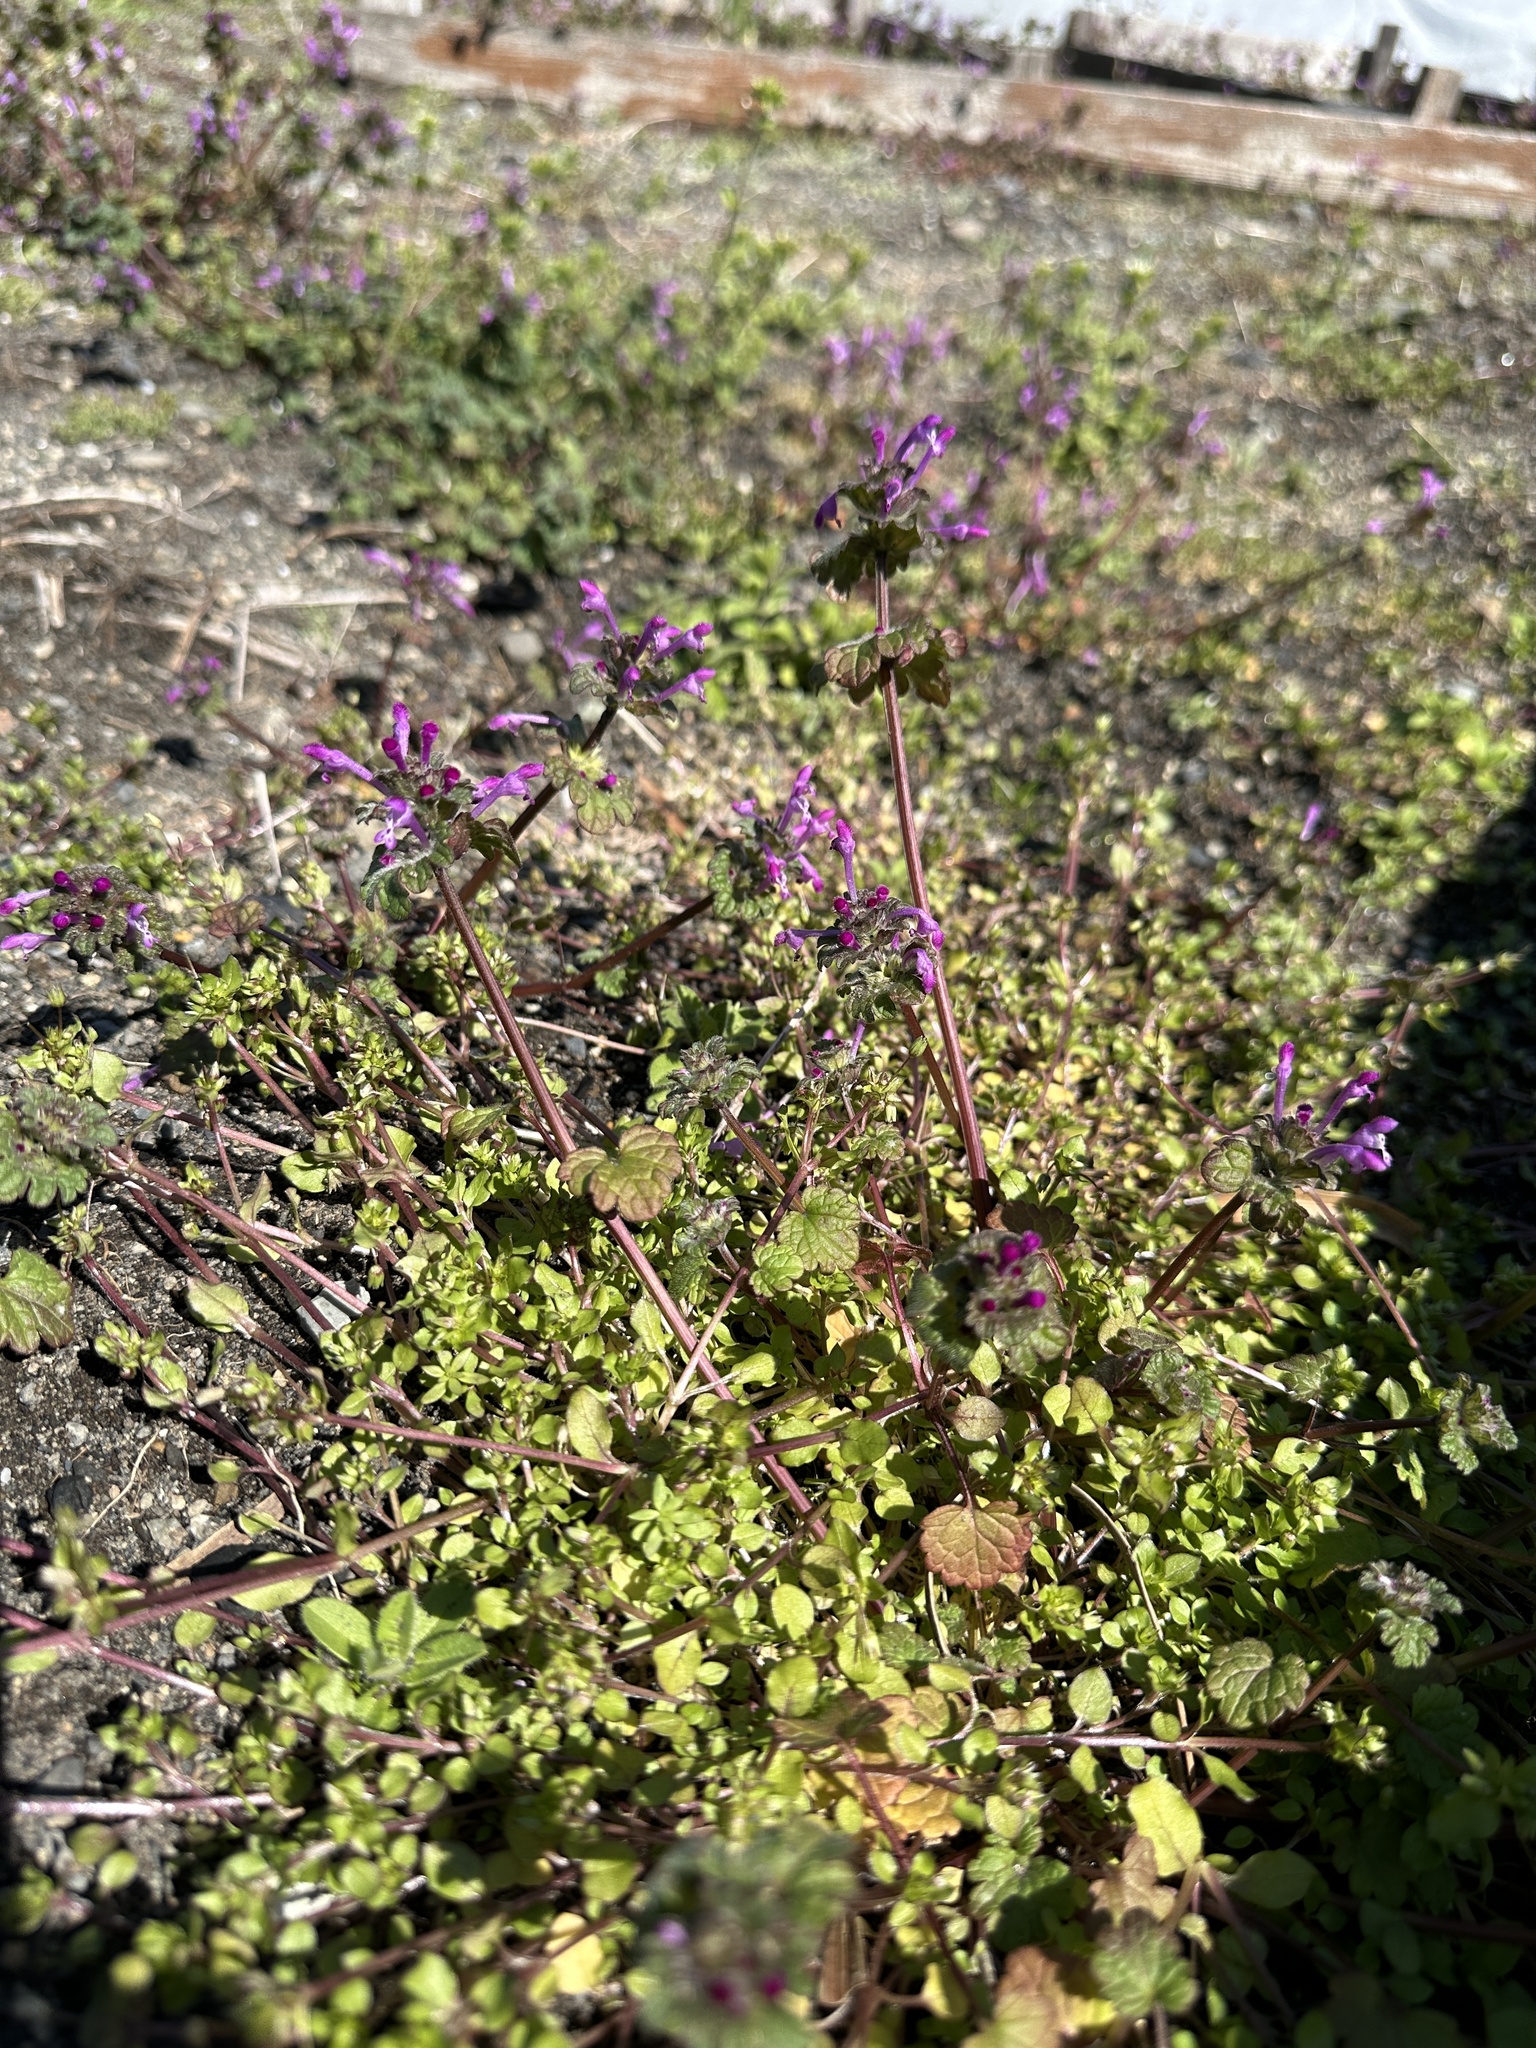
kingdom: Plantae
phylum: Tracheophyta
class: Magnoliopsida
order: Lamiales
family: Lamiaceae
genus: Lamium
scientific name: Lamium amplexicaule
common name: Henbit dead-nettle
